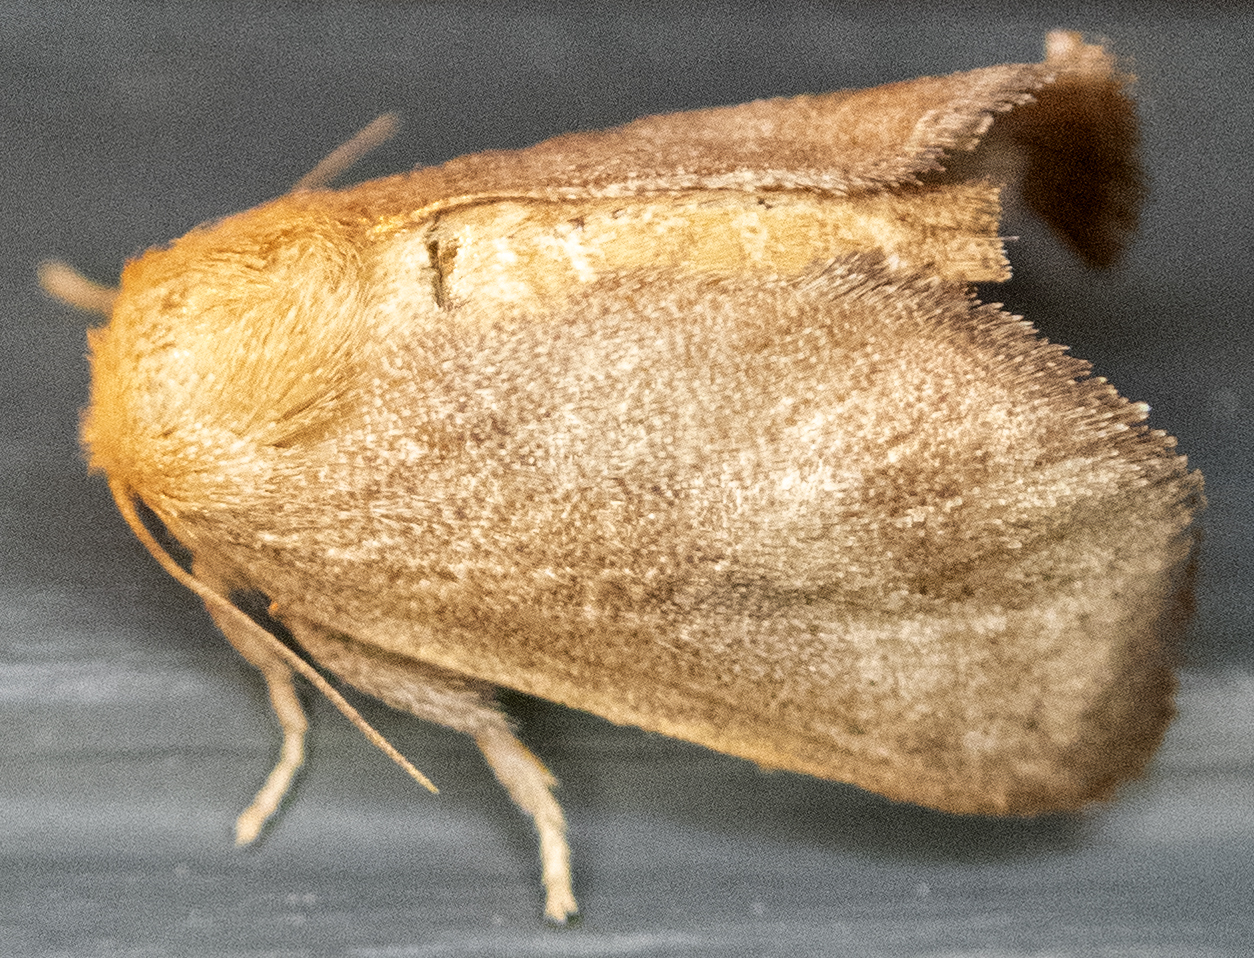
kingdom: Animalia
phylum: Arthropoda
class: Insecta
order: Lepidoptera
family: Limacodidae
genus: Isa
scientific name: Isa textula
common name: Crowned slug moth
